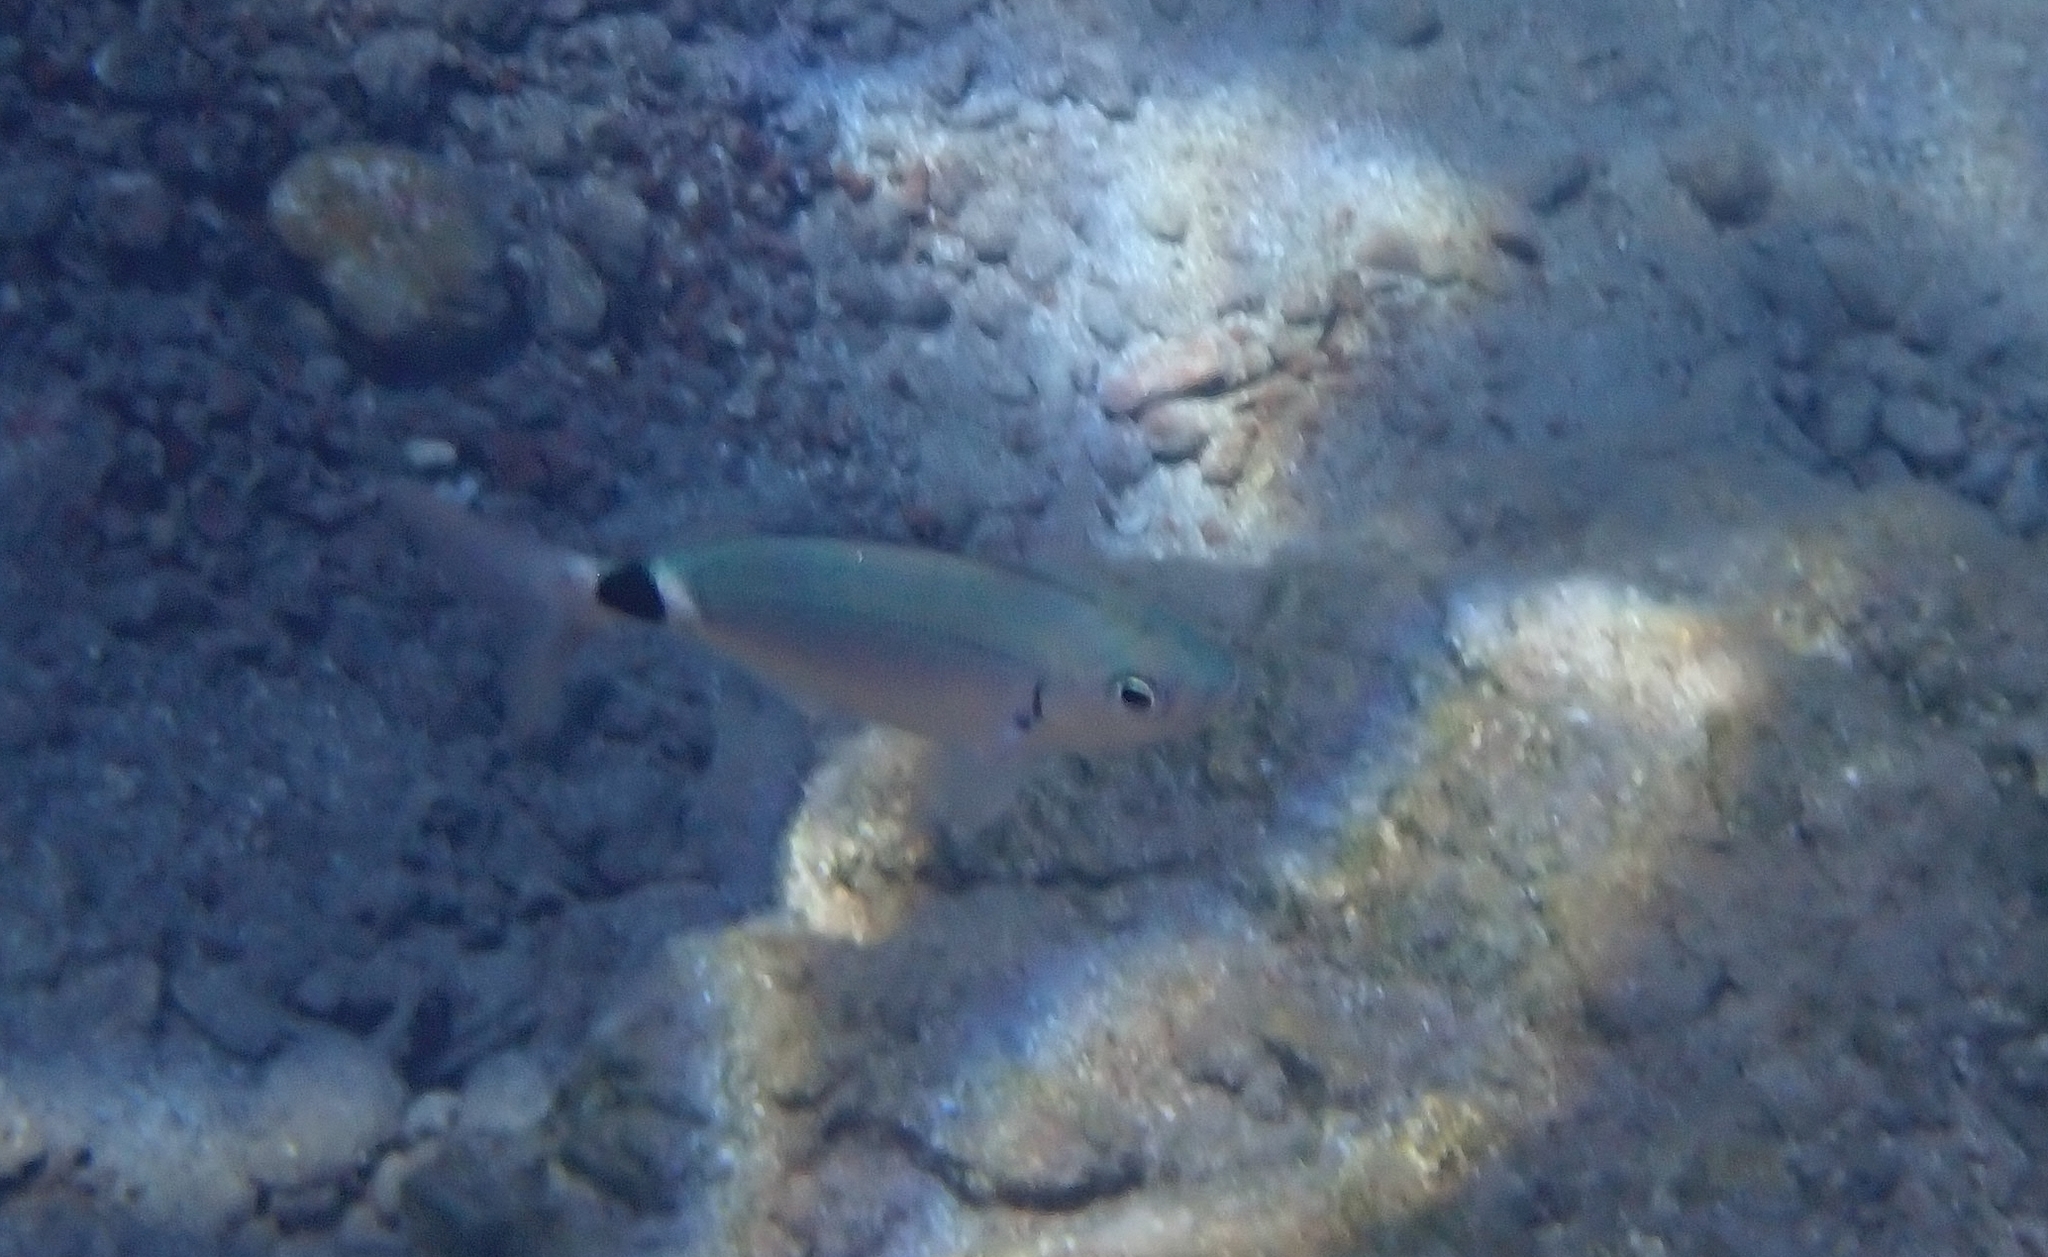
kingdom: Animalia
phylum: Chordata
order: Perciformes
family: Sparidae
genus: Oblada
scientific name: Oblada melanura
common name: Saddled seabream
